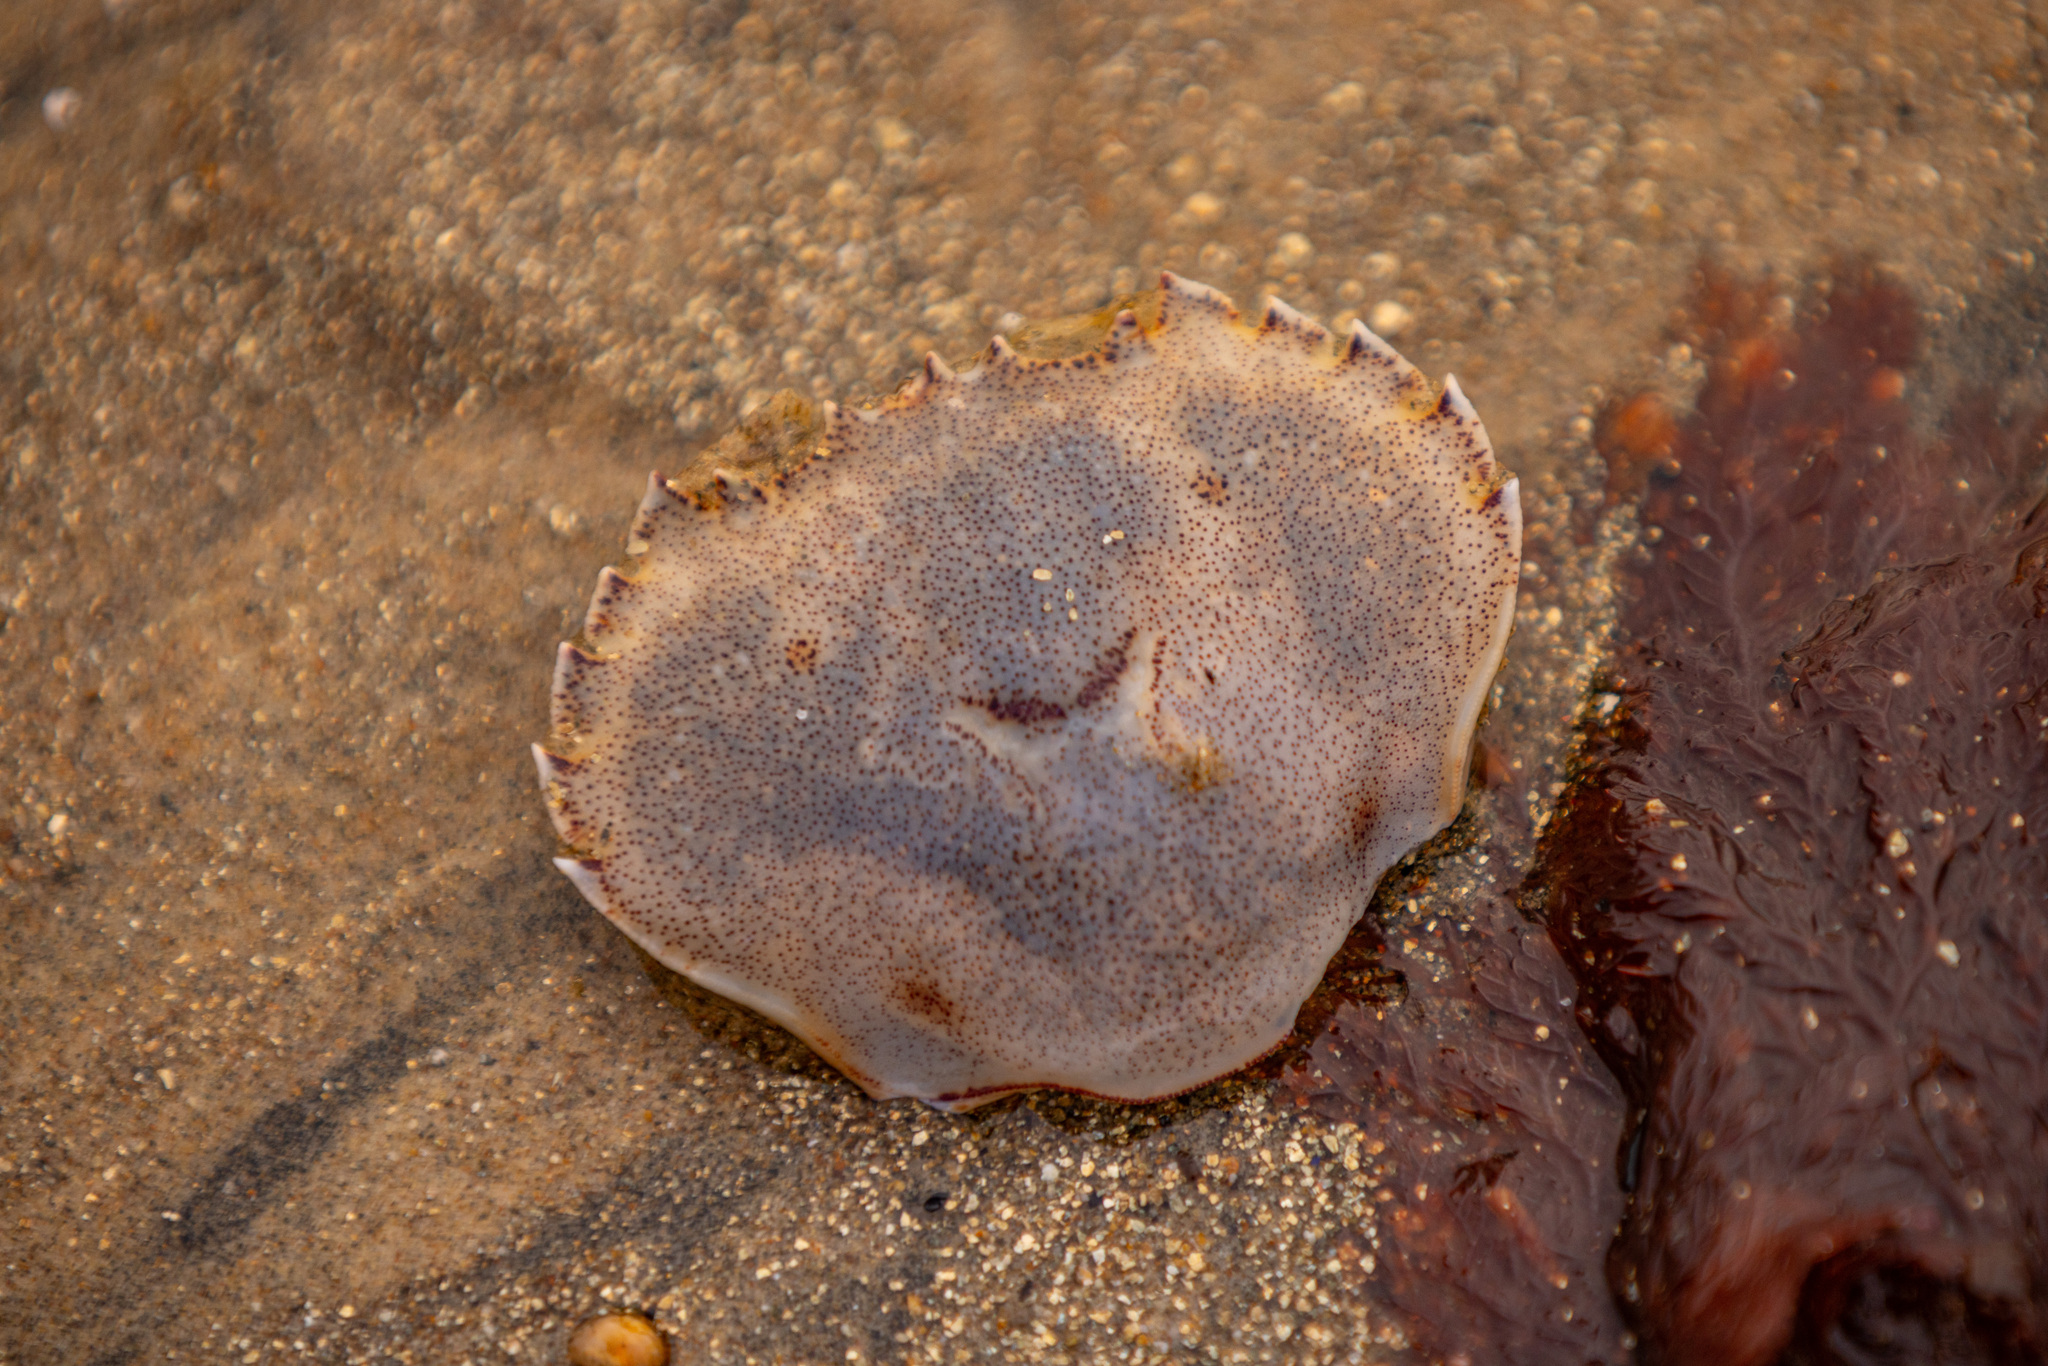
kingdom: Animalia
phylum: Arthropoda
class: Malacostraca
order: Decapoda
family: Ovalipidae
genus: Ovalipes
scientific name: Ovalipes catharus
